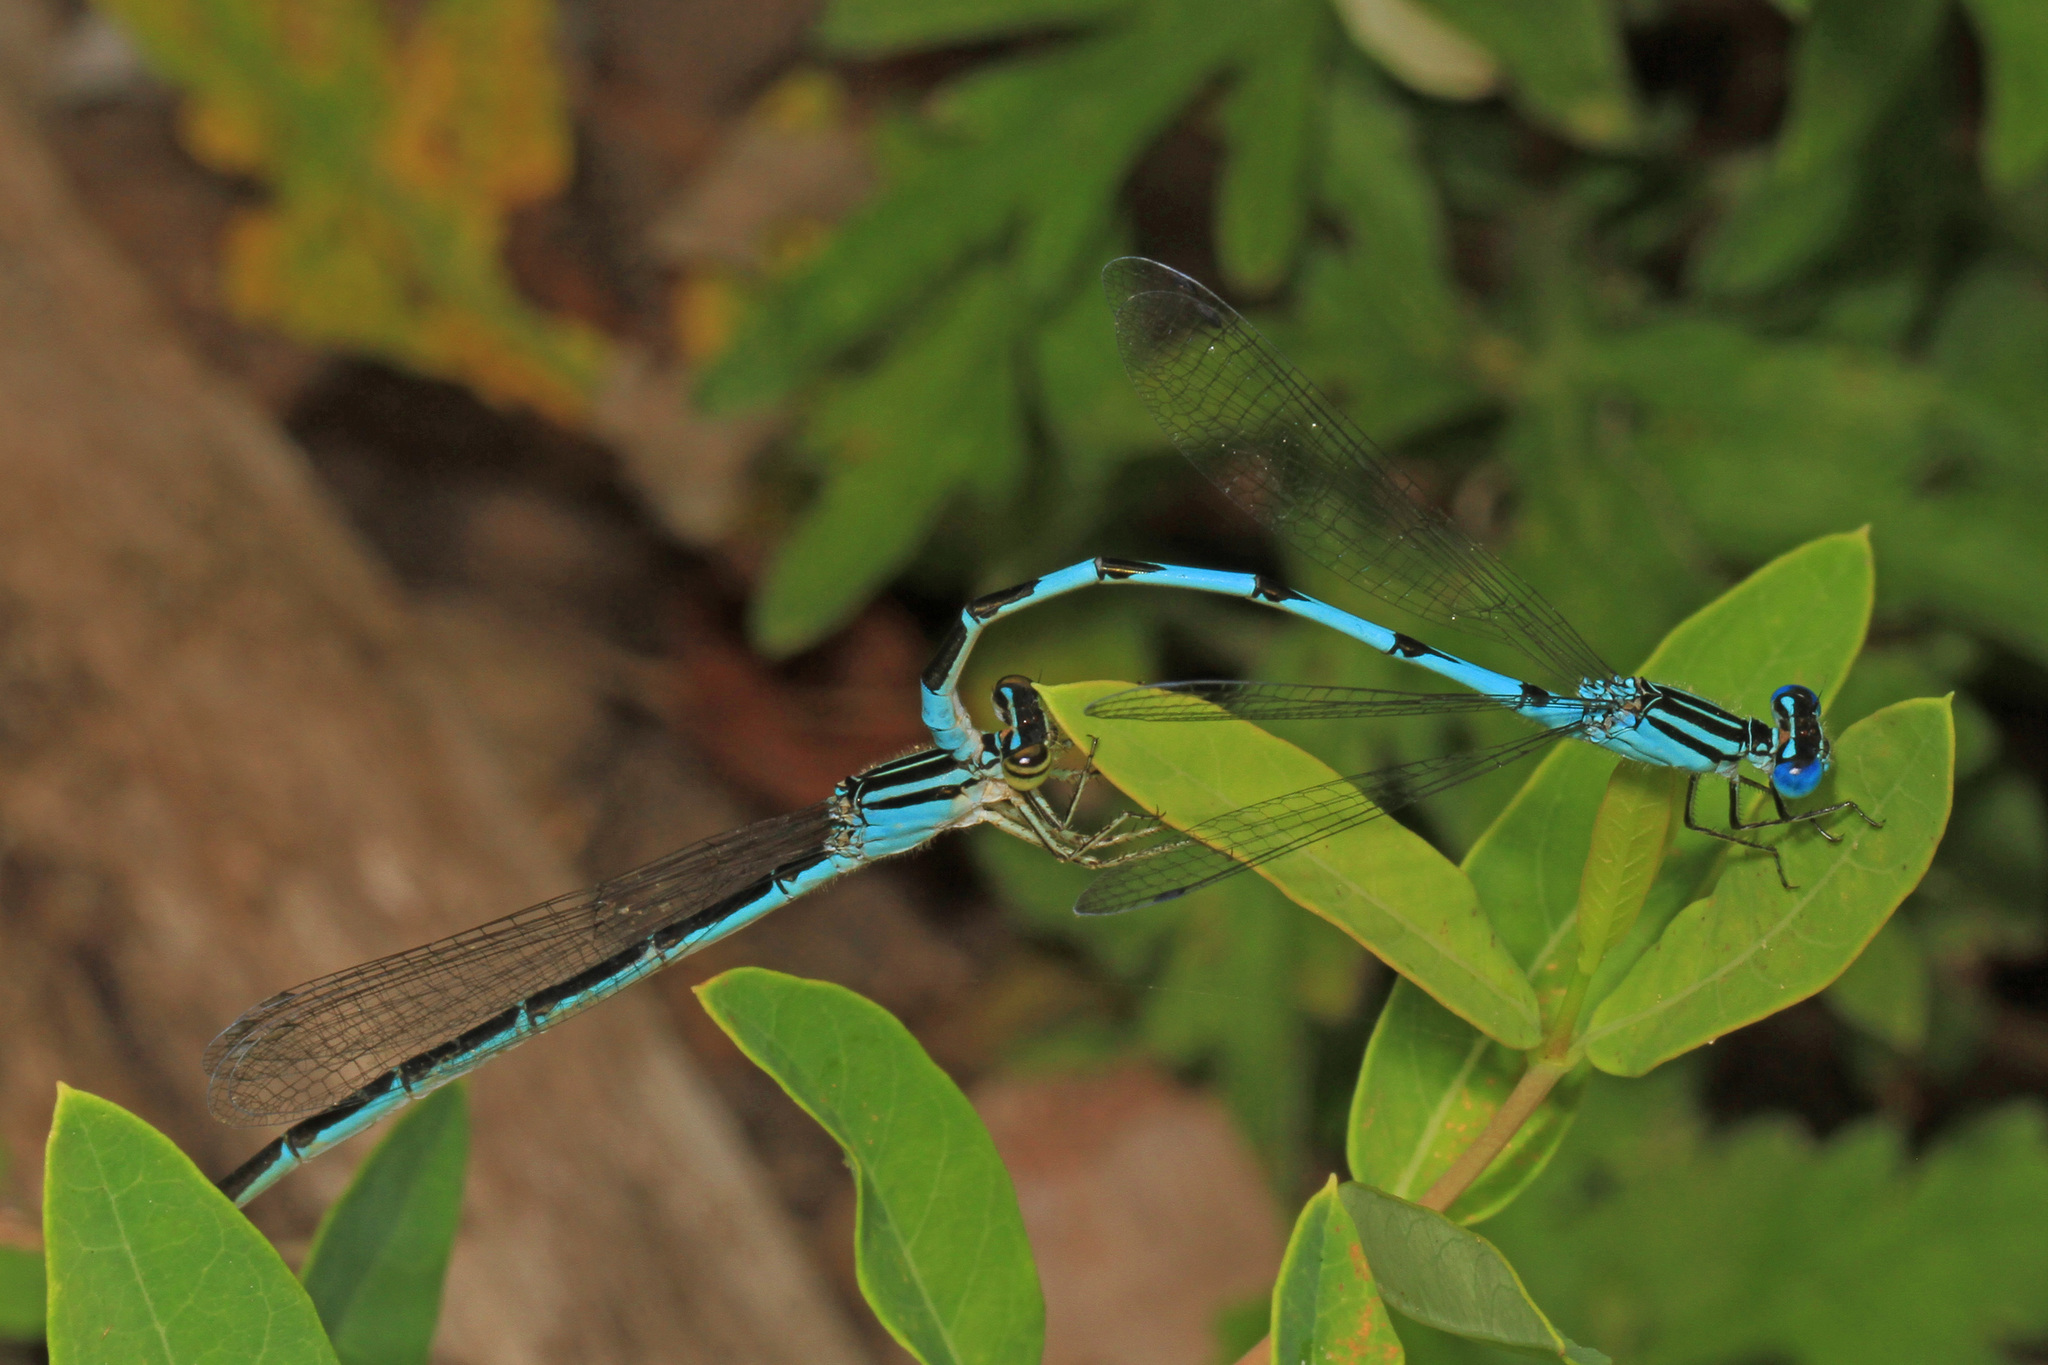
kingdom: Animalia
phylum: Arthropoda
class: Insecta
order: Odonata
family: Coenagrionidae
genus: Enallagma
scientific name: Enallagma durum
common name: Big bluet
